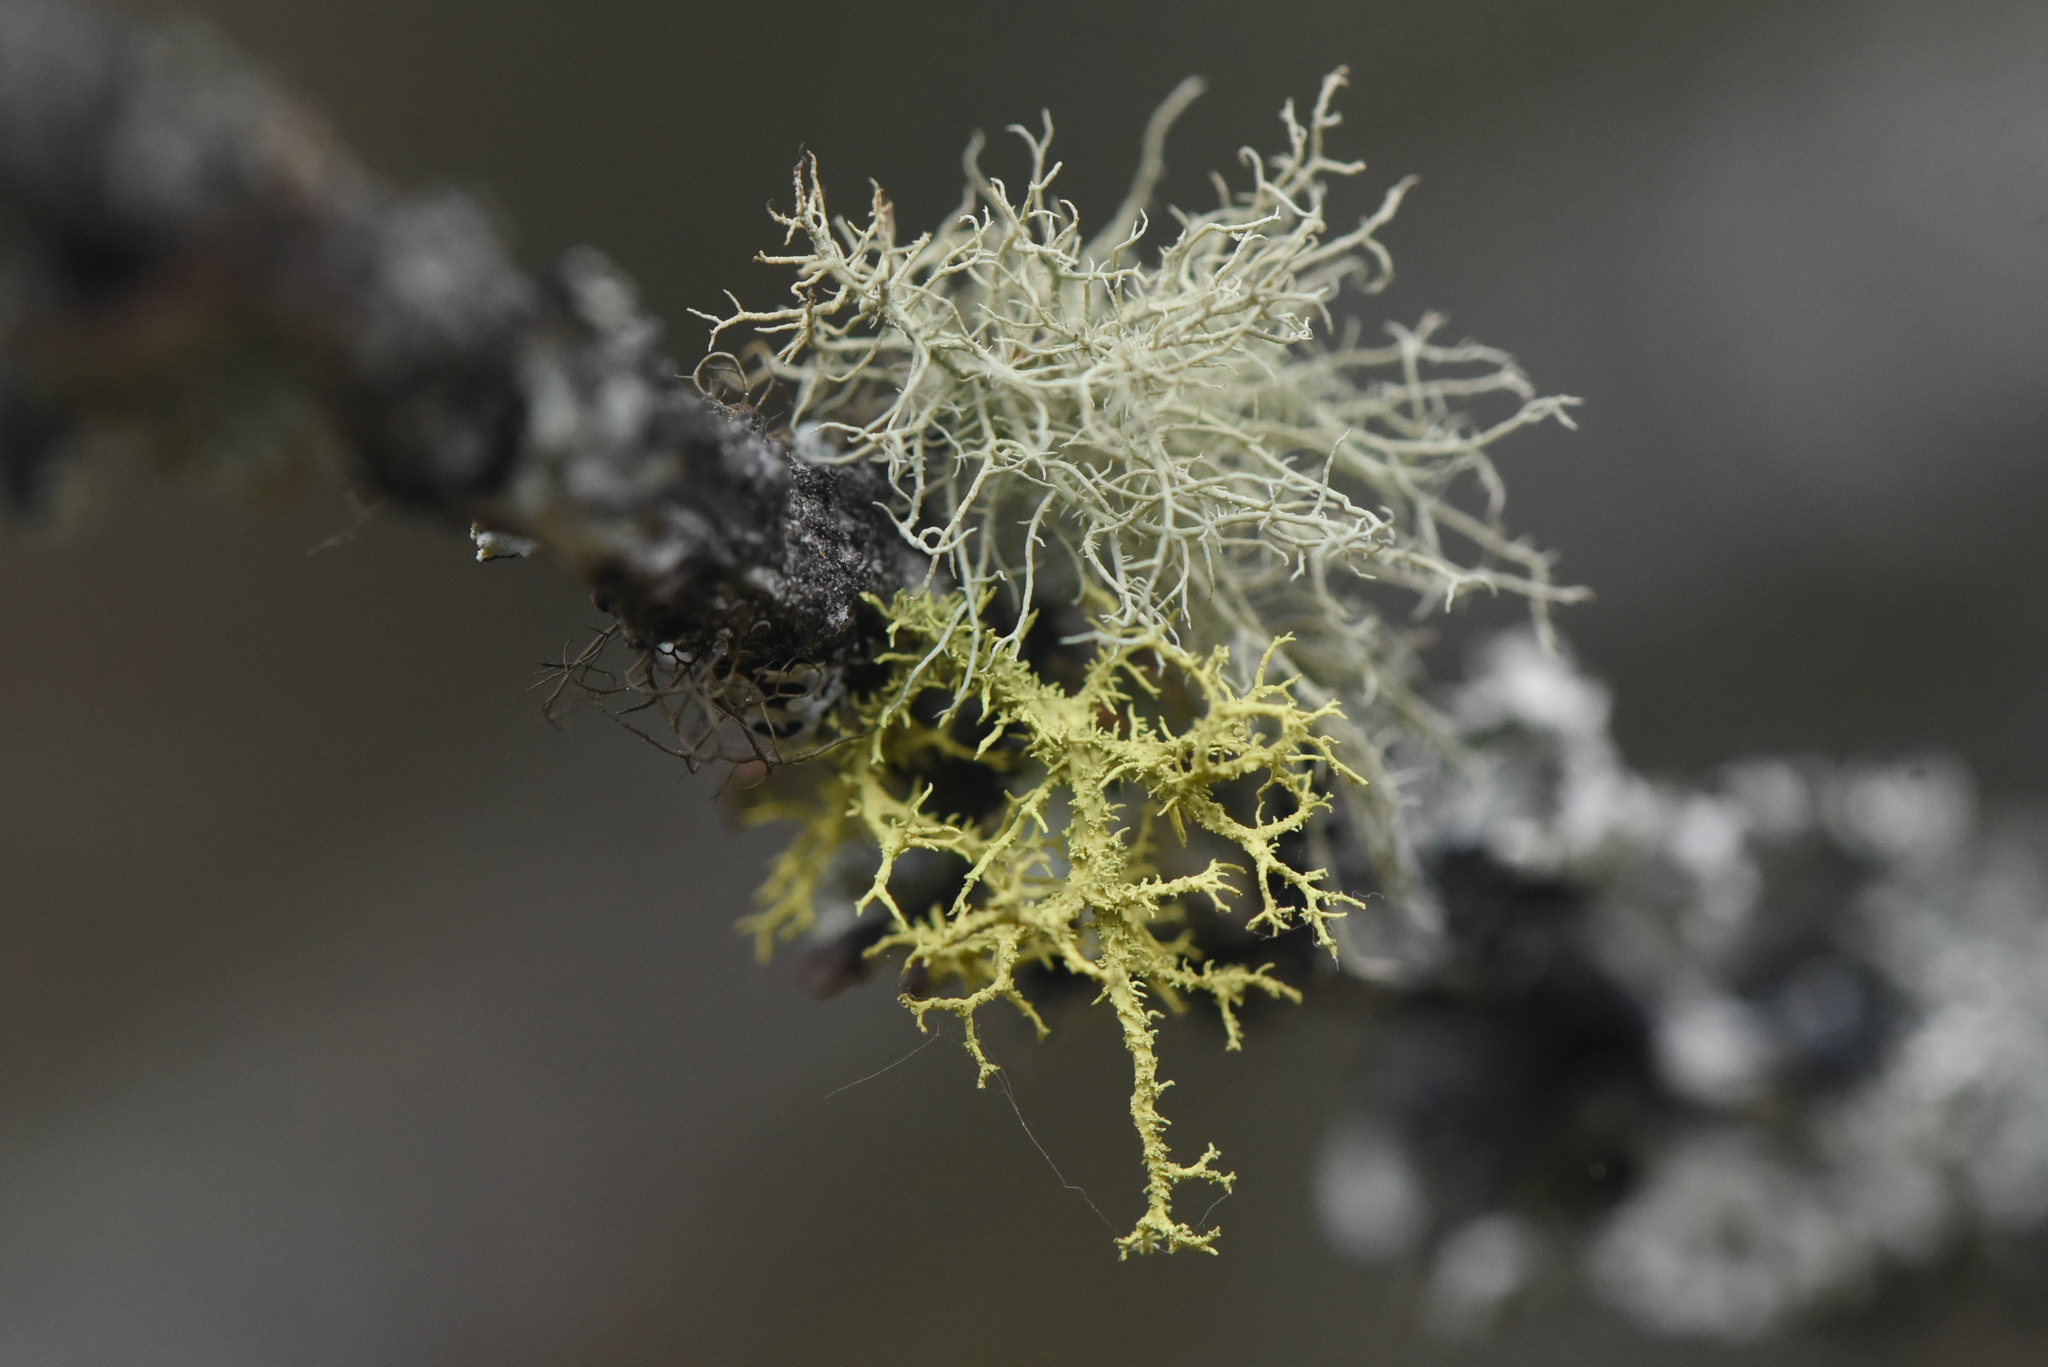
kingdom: Fungi
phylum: Ascomycota
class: Lecanoromycetes
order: Lecanorales
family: Parmeliaceae
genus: Letharia
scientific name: Letharia vulpina
